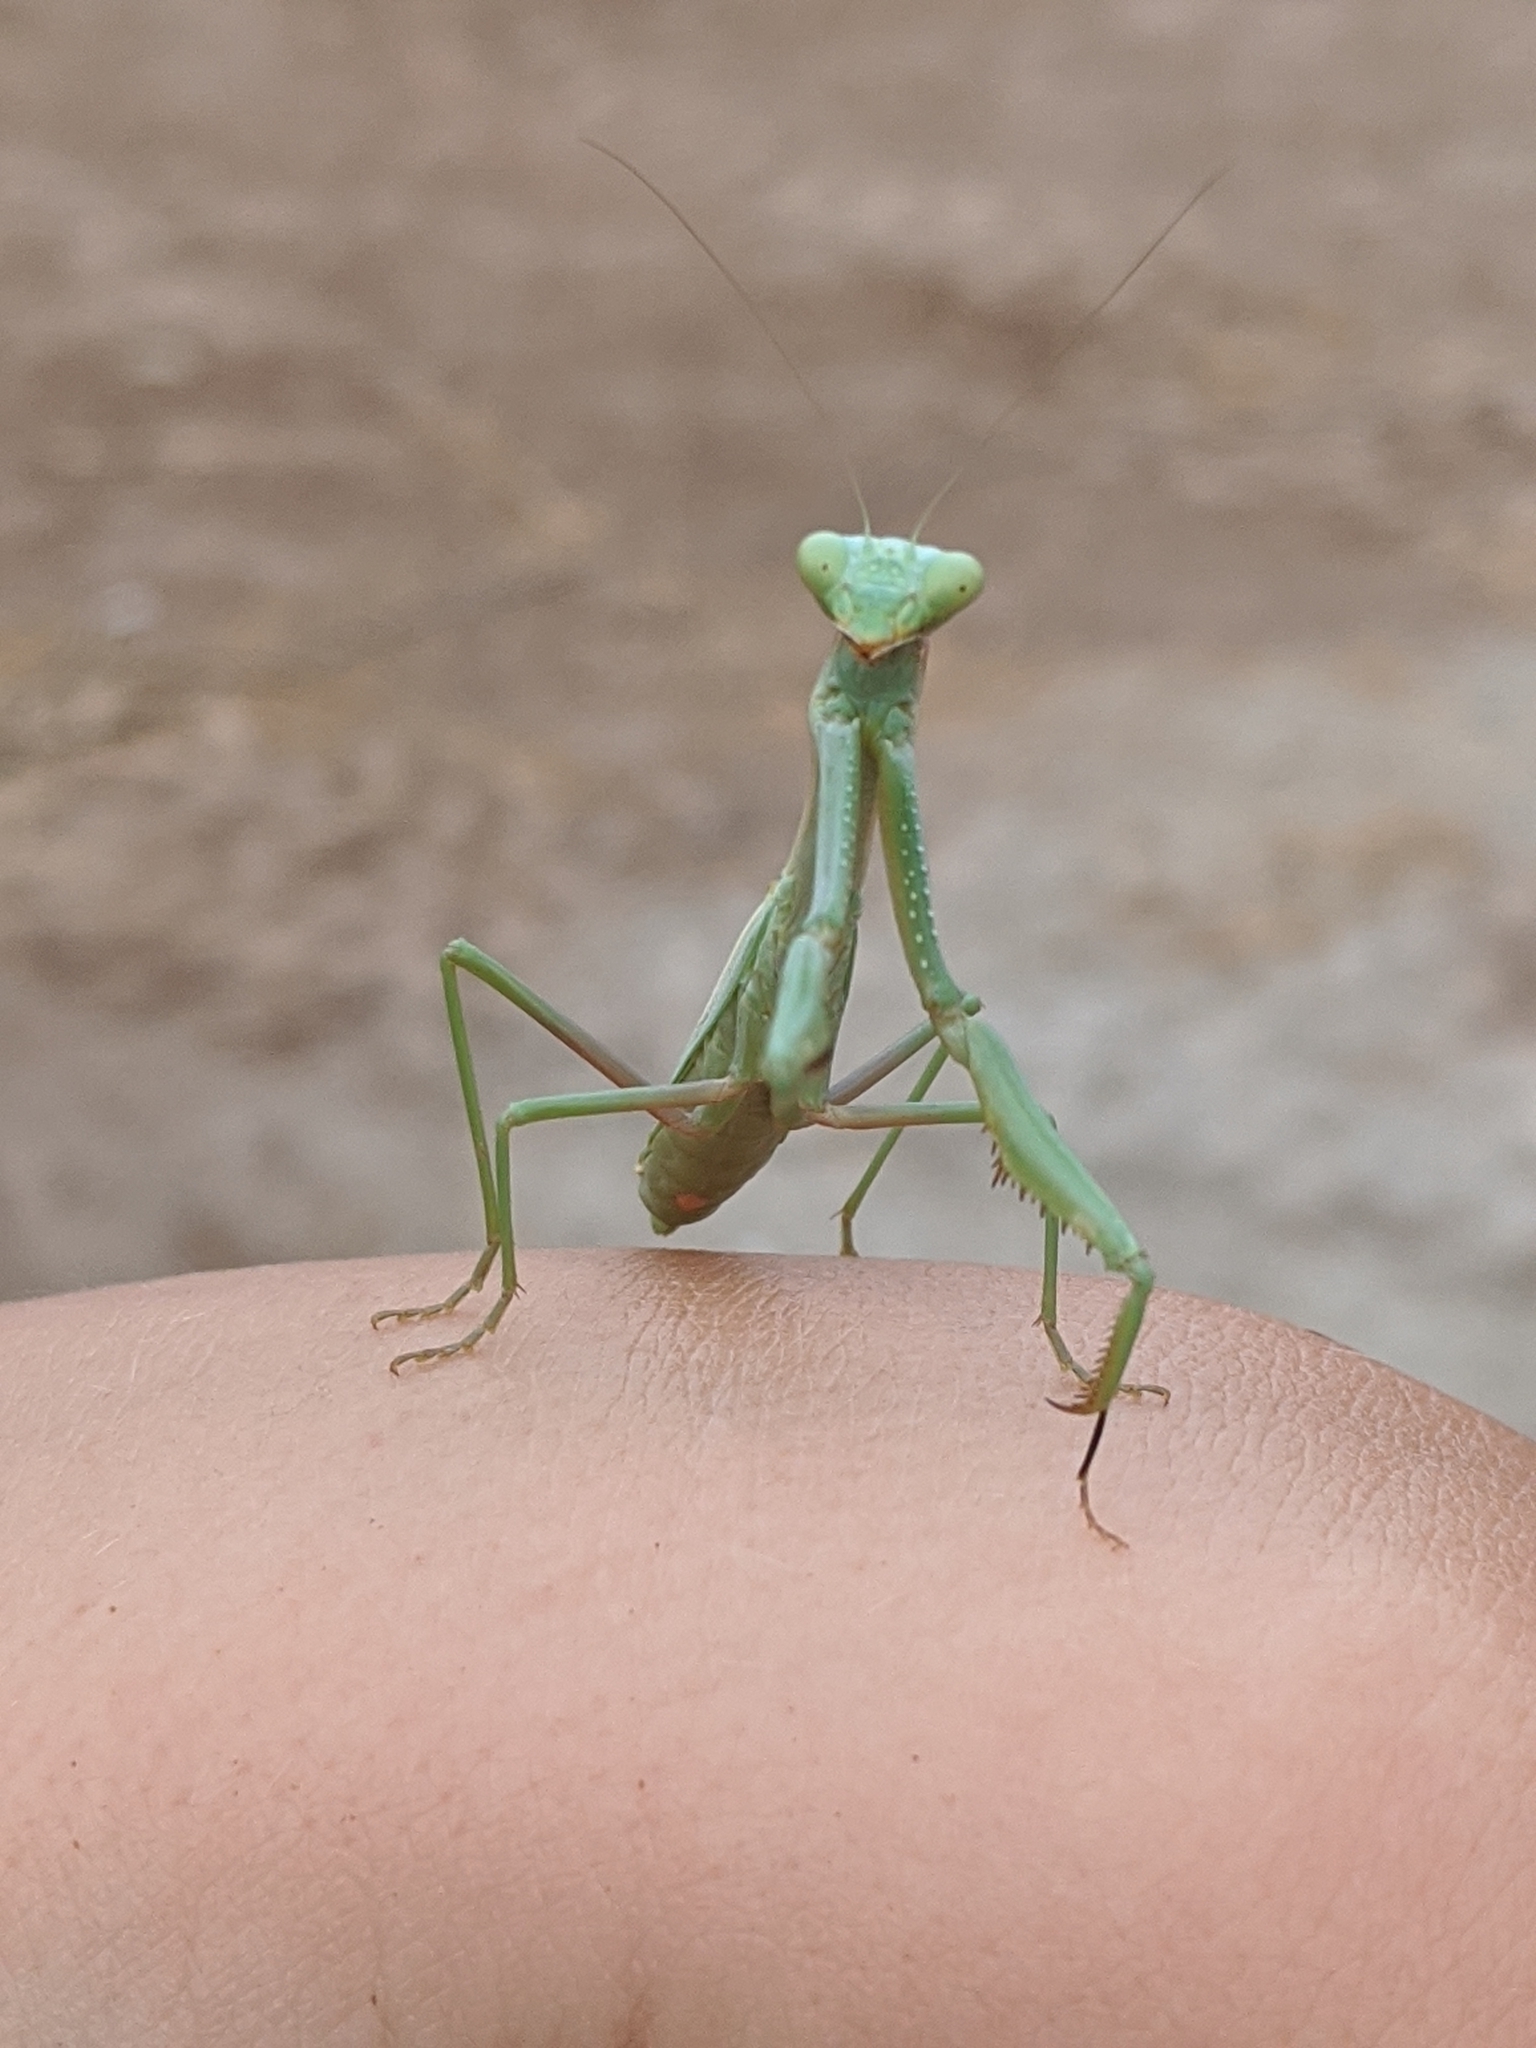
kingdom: Animalia
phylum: Arthropoda
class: Insecta
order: Mantodea
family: Eremiaphilidae
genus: Iris
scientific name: Iris oratoria
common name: Mediterranean mantis
